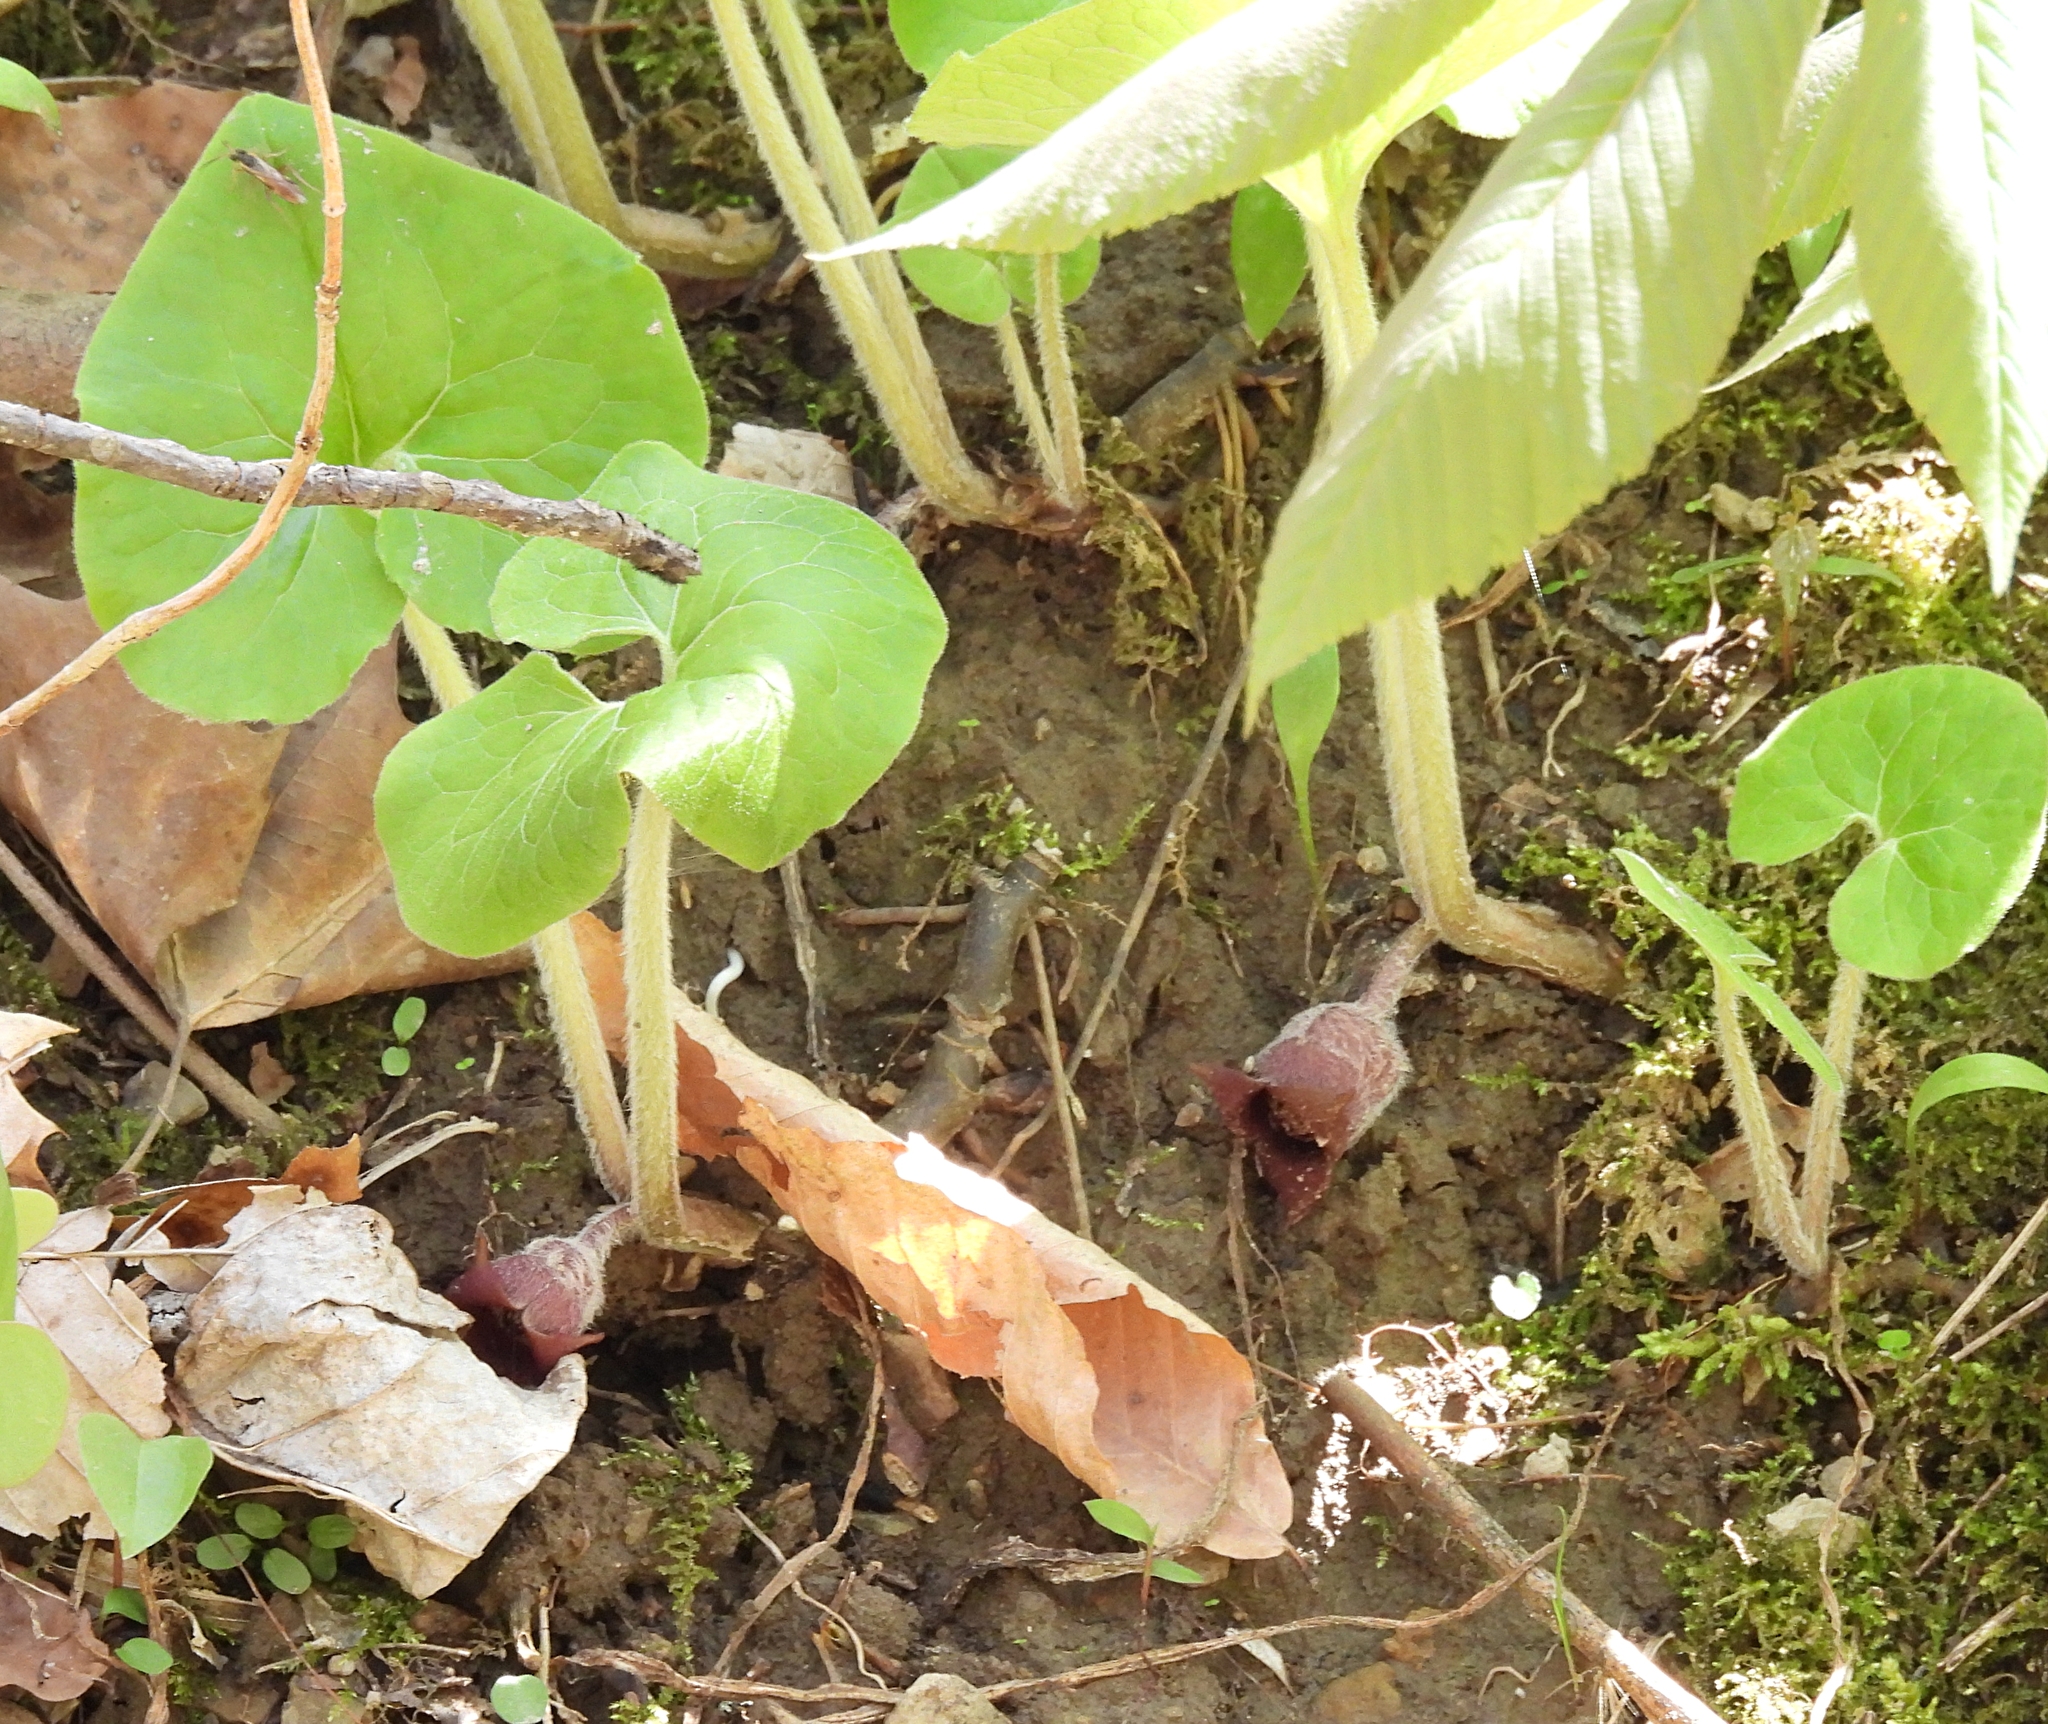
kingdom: Plantae
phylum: Tracheophyta
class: Magnoliopsida
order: Piperales
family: Aristolochiaceae
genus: Asarum
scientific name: Asarum canadense
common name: Wild ginger
